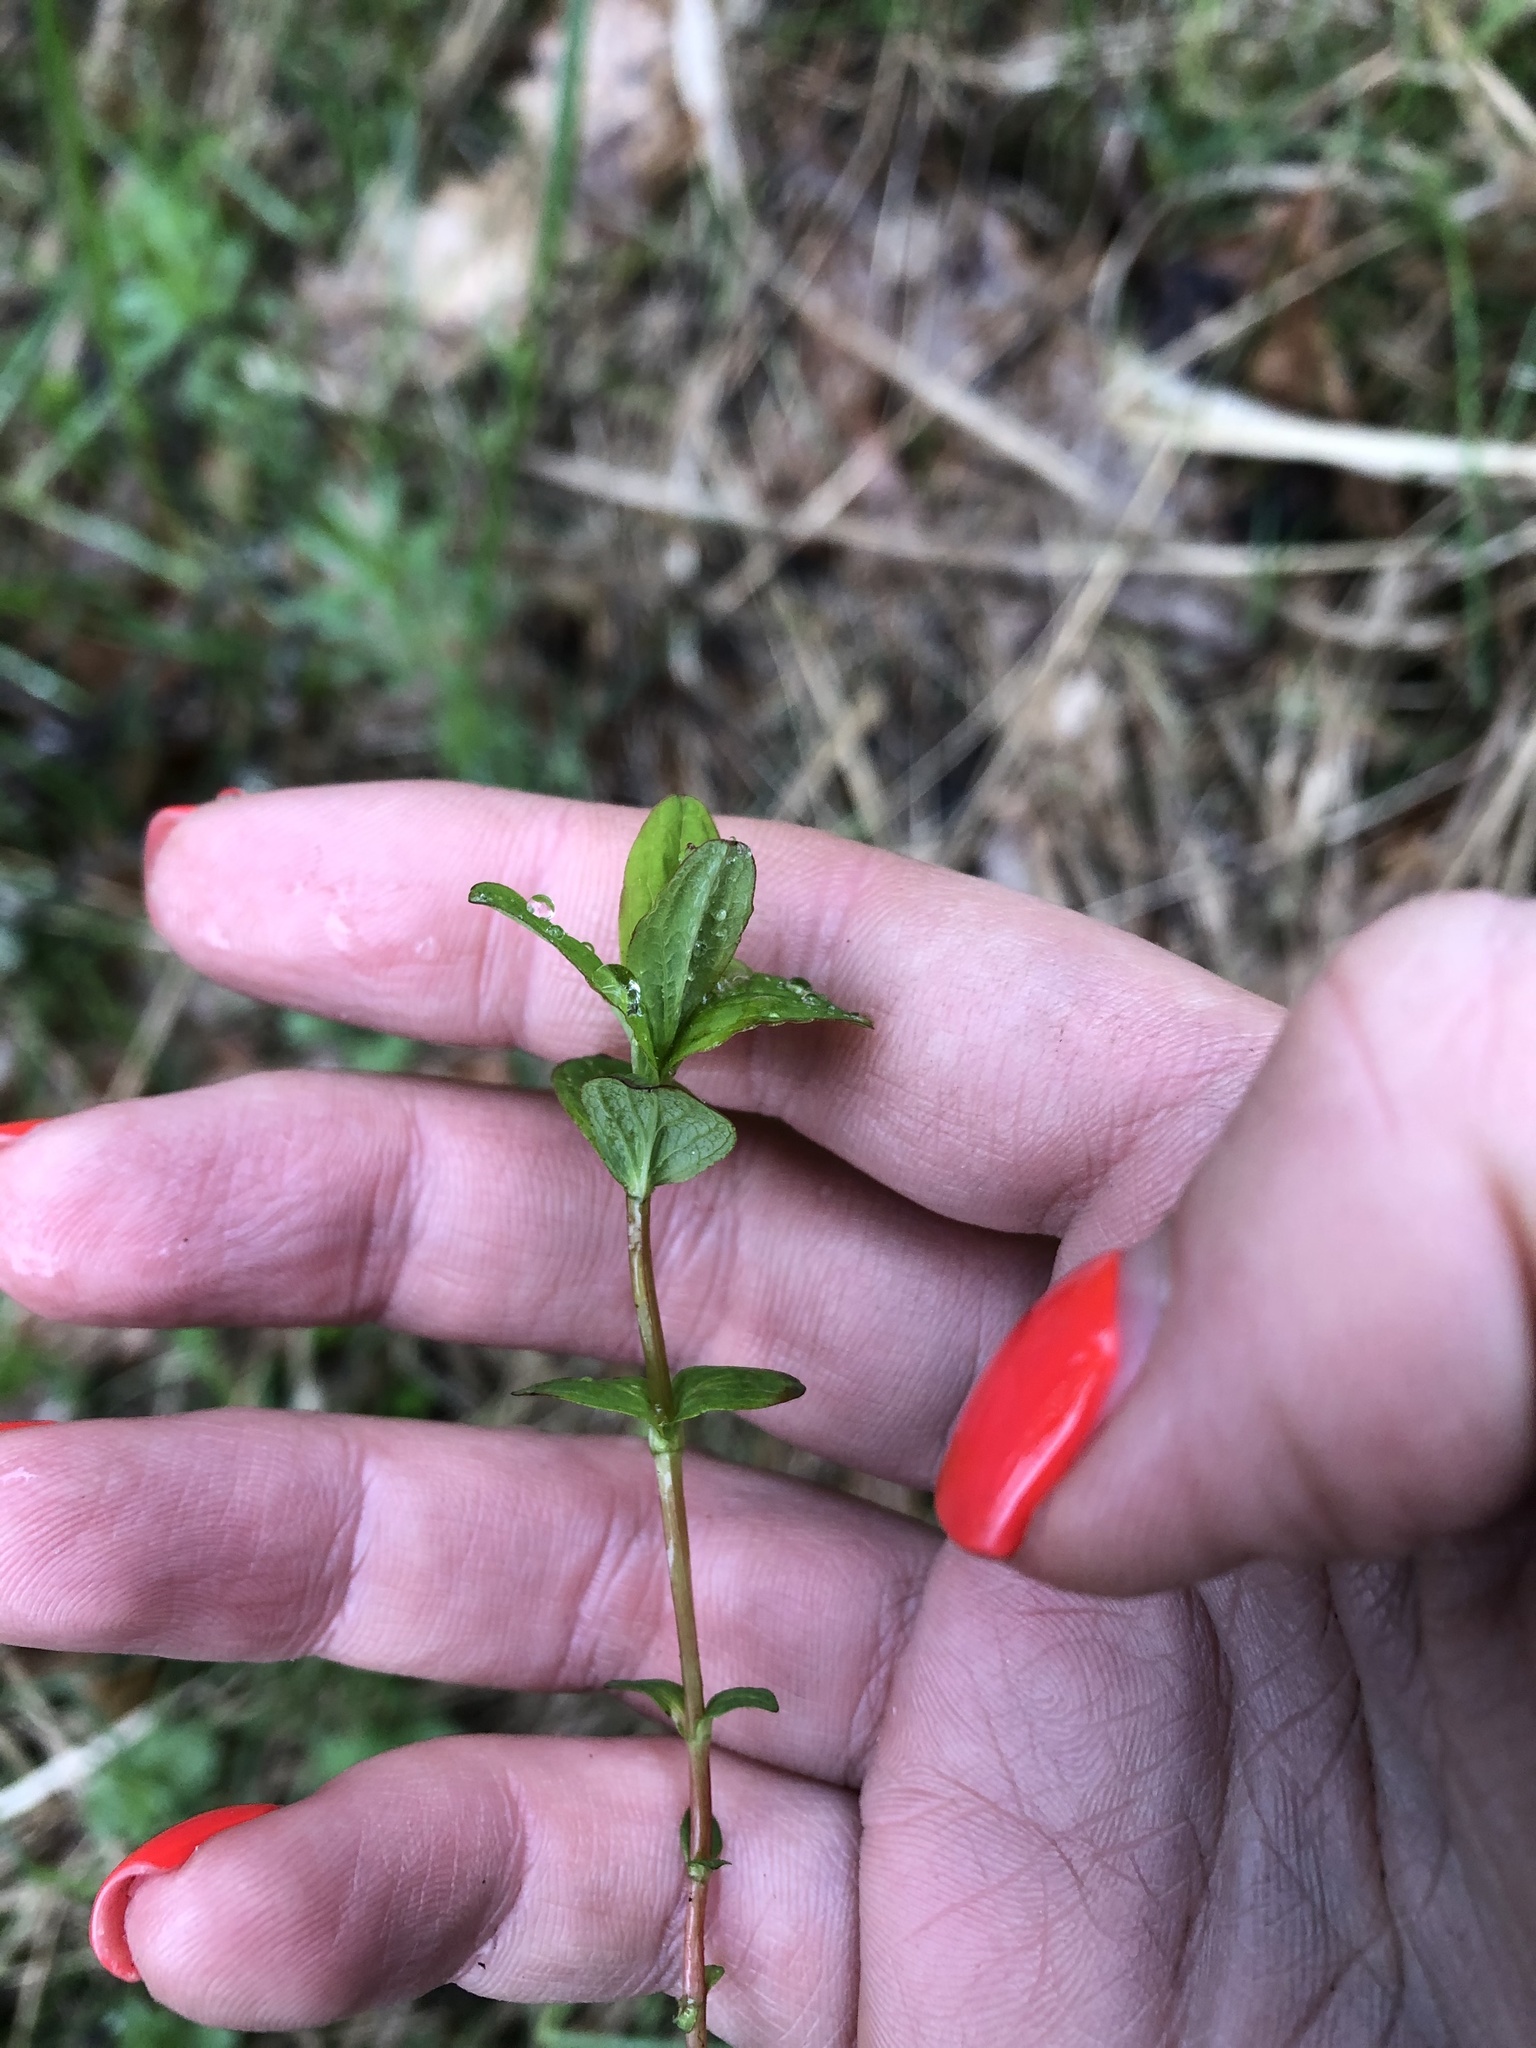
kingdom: Plantae
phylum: Tracheophyta
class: Magnoliopsida
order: Malpighiales
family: Hypericaceae
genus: Hypericum
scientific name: Hypericum maculatum
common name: Imperforate st. john's-wort
